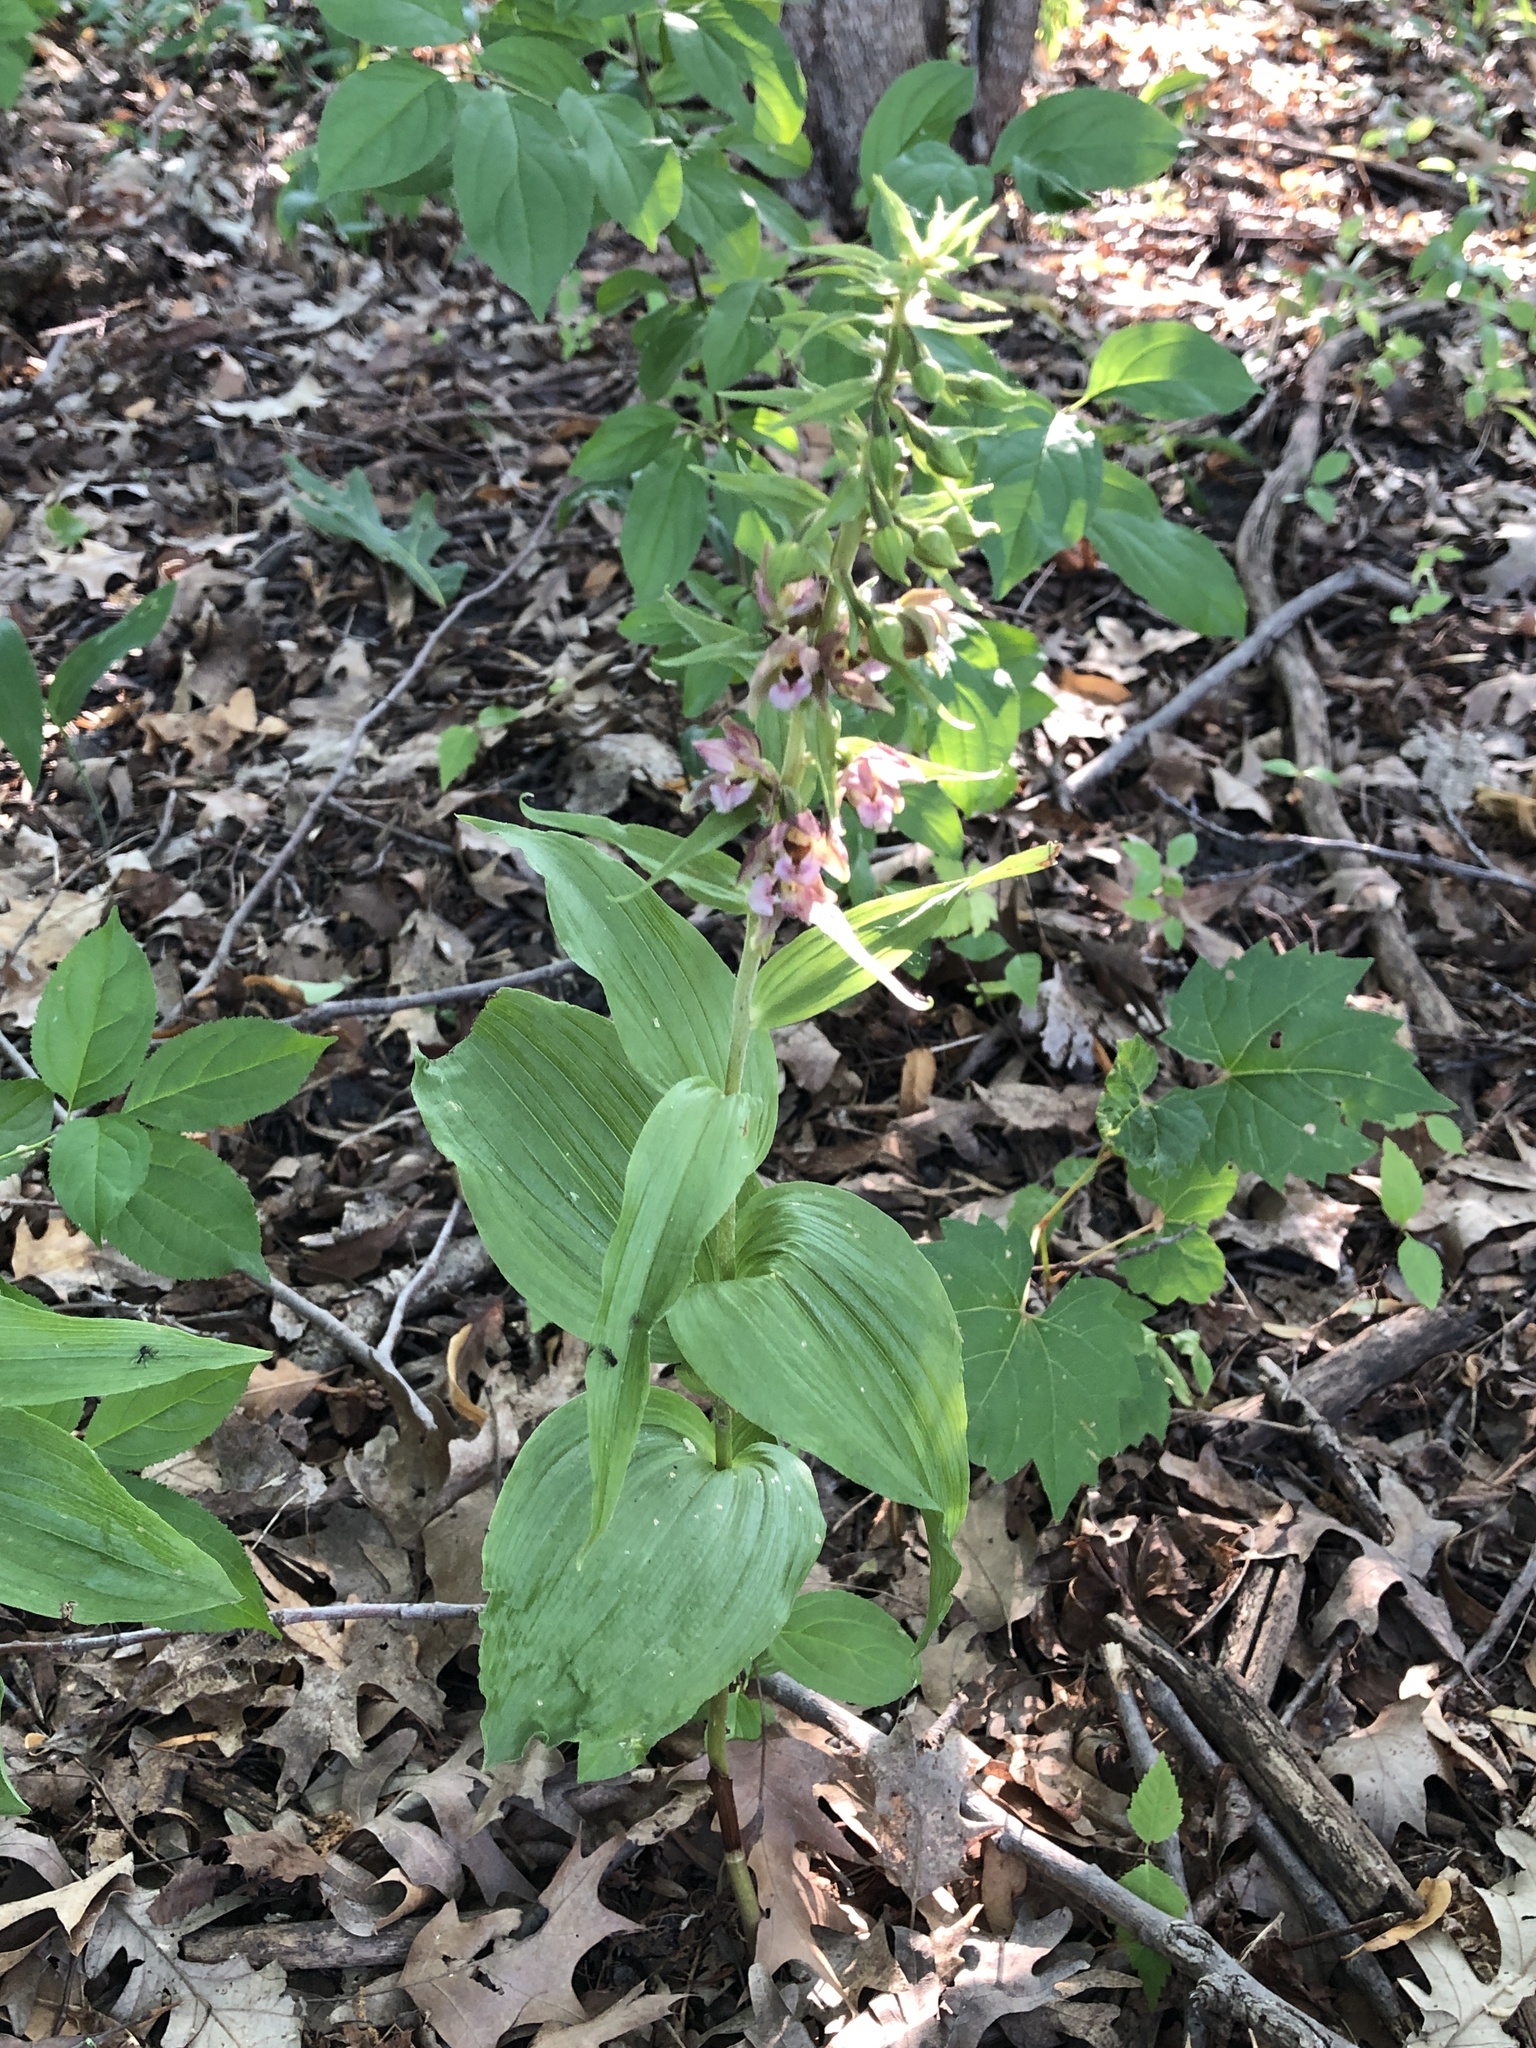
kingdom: Plantae
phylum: Tracheophyta
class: Liliopsida
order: Asparagales
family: Orchidaceae
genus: Epipactis
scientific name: Epipactis helleborine
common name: Broad-leaved helleborine
